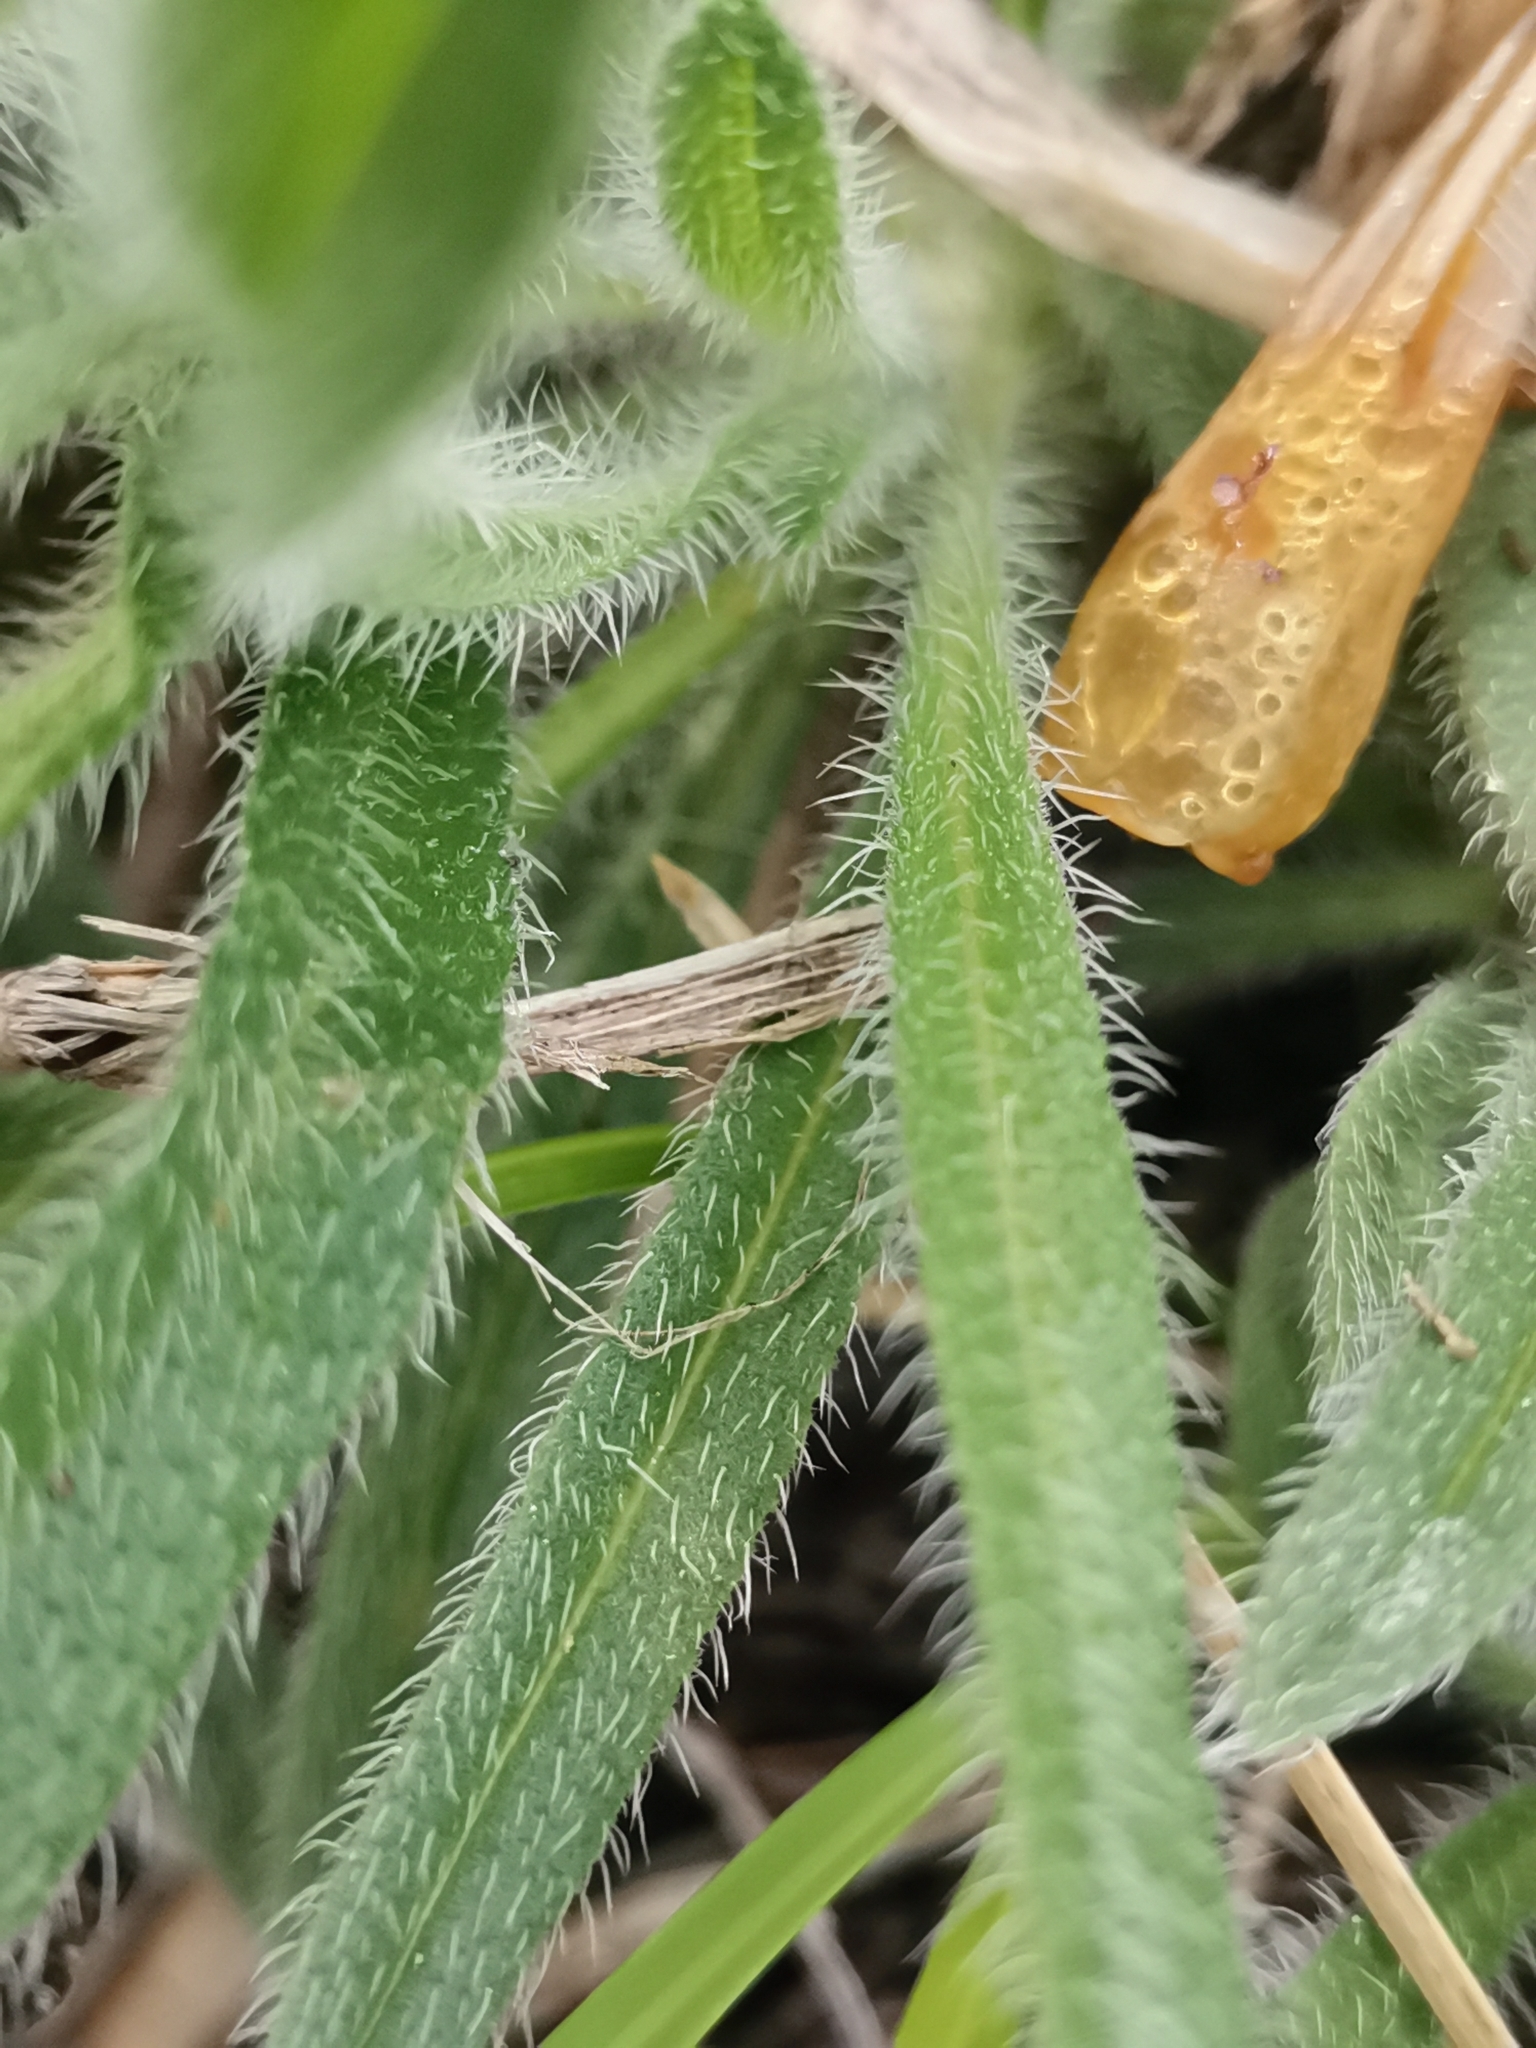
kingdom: Plantae
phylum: Tracheophyta
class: Magnoliopsida
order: Boraginales
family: Boraginaceae
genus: Onosma
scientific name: Onosma pseudoarenaria
